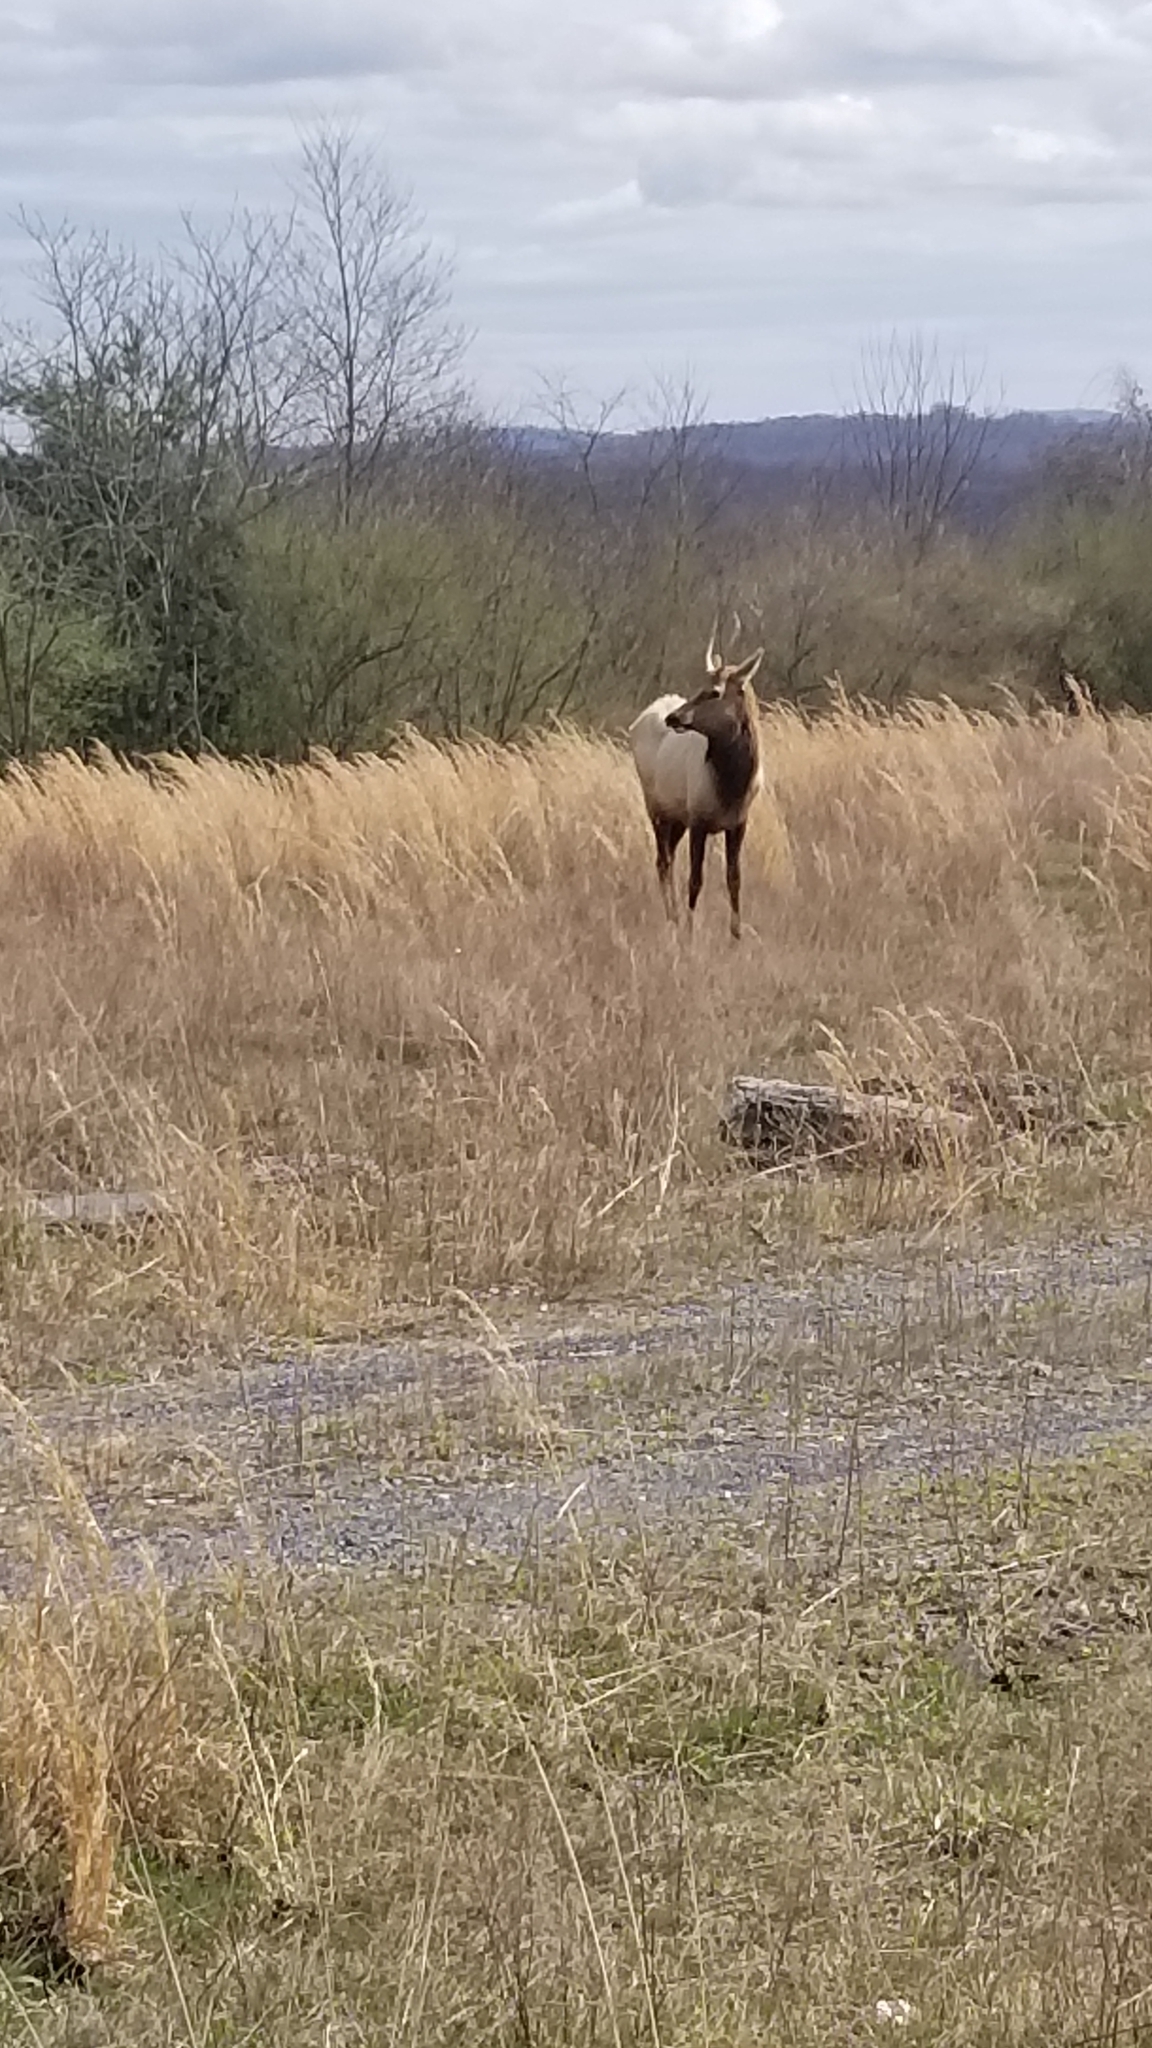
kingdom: Animalia
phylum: Chordata
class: Mammalia
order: Artiodactyla
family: Cervidae
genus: Cervus
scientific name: Cervus elaphus
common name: Red deer
